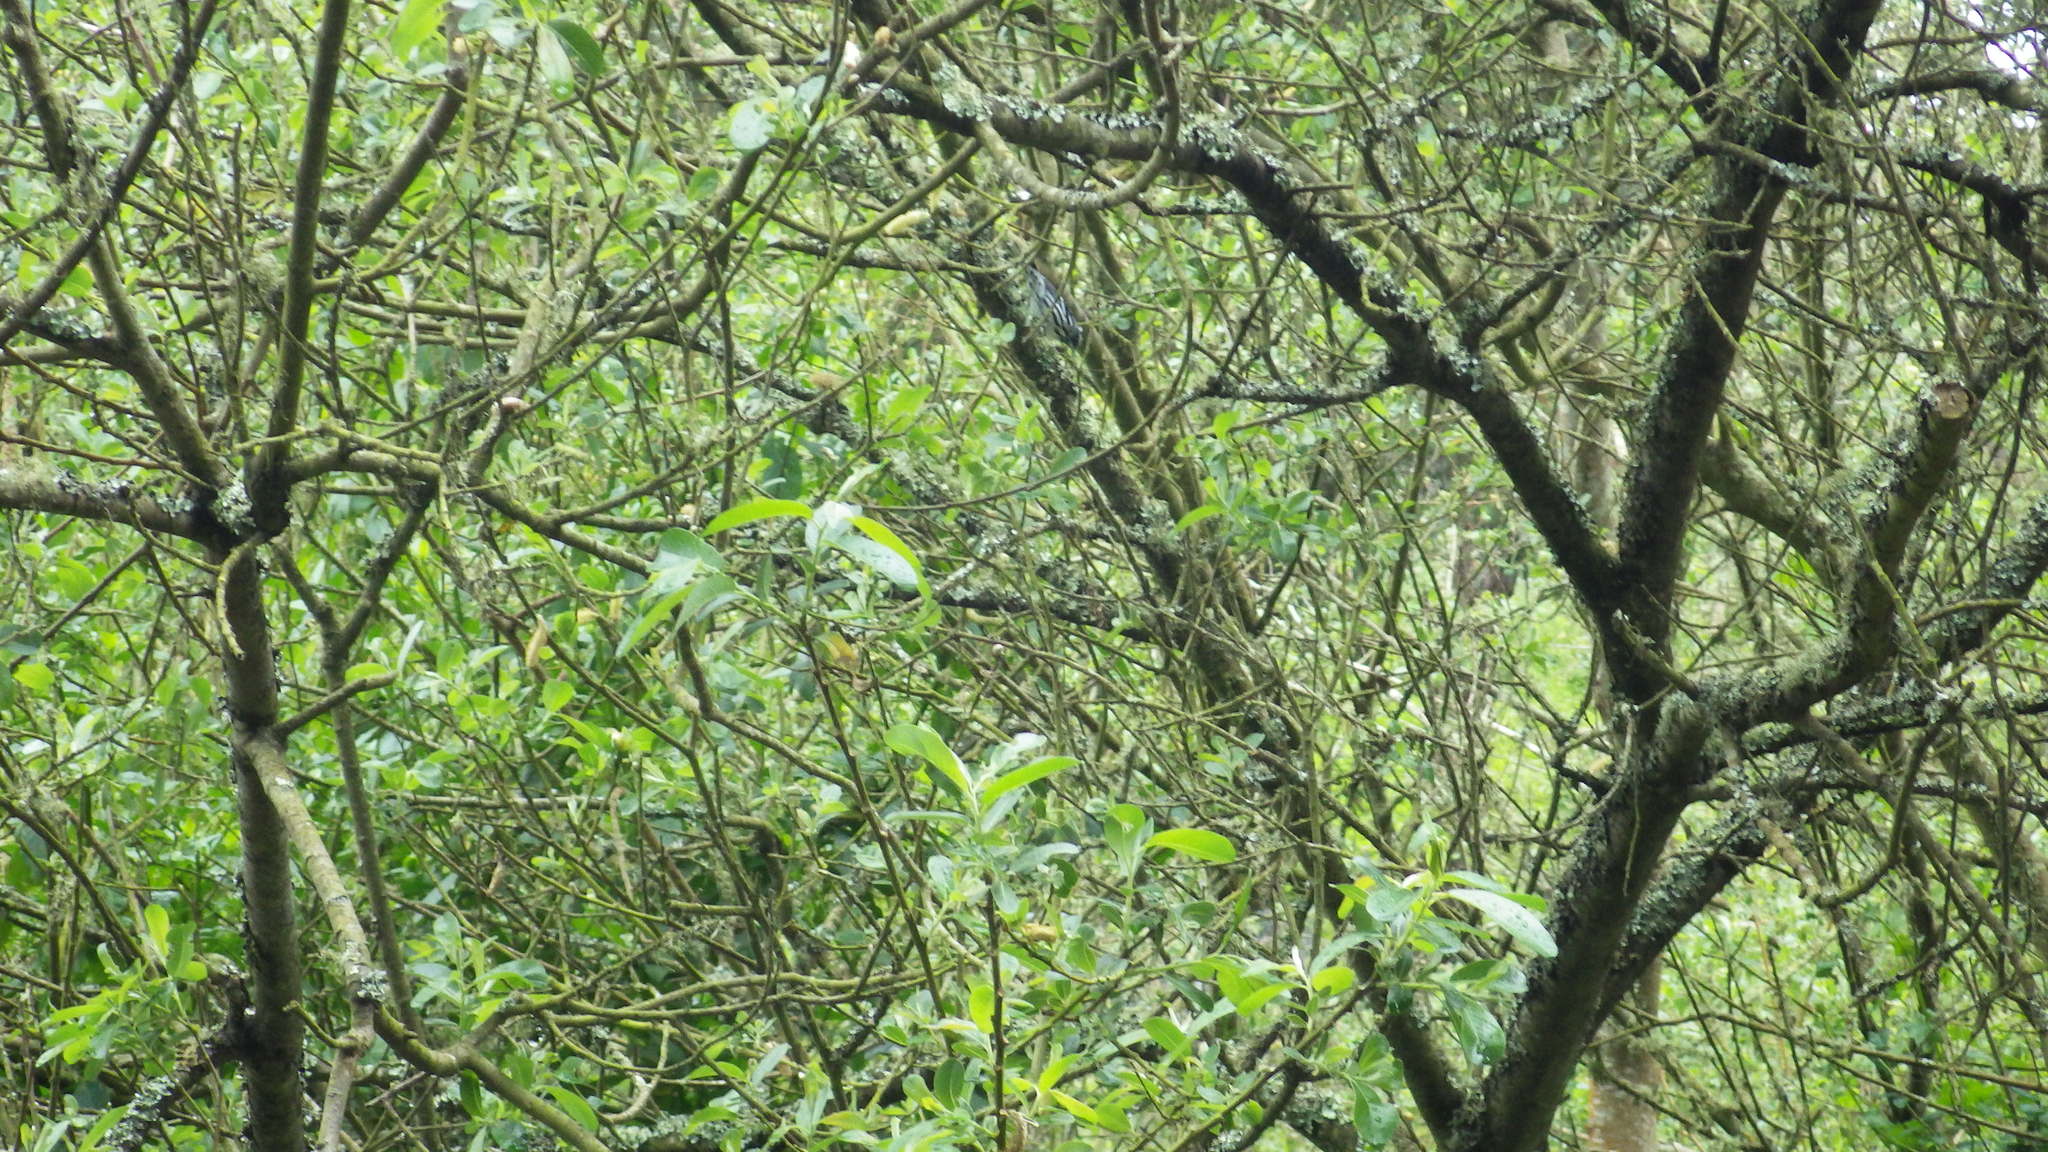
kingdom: Animalia
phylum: Chordata
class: Aves
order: Passeriformes
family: Parulidae
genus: Mniotilta
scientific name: Mniotilta varia
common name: Black-and-white warbler
